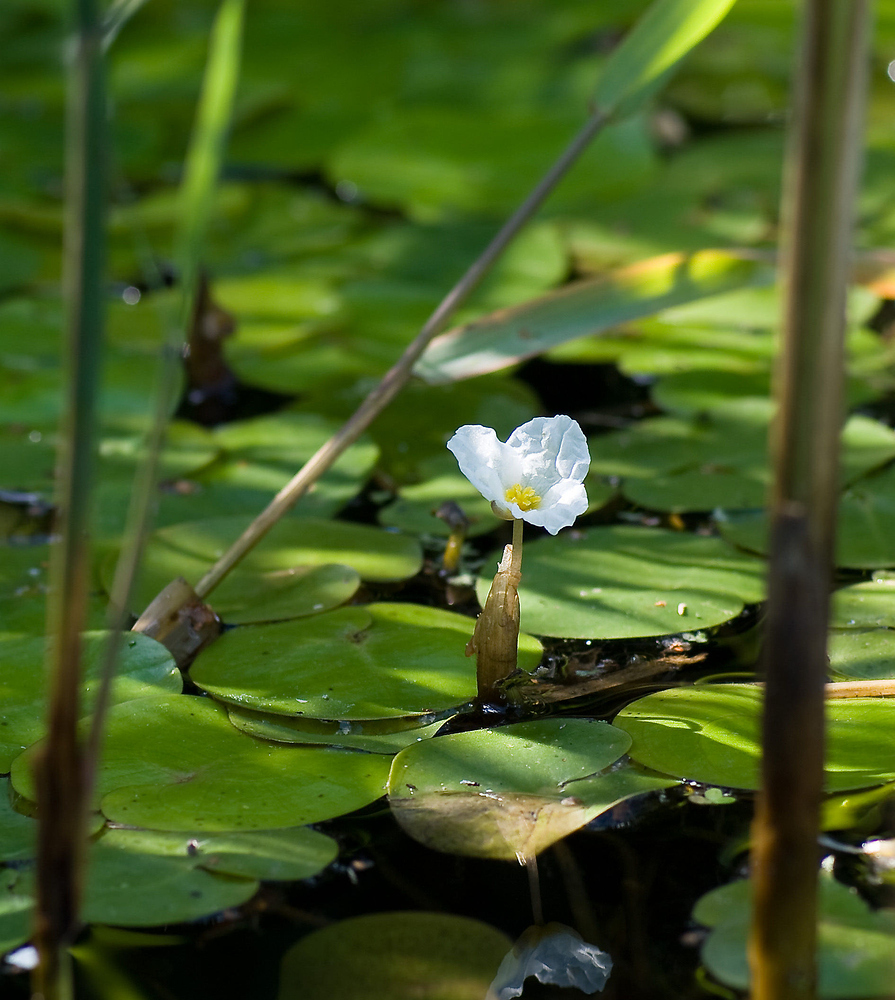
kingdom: Plantae
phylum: Tracheophyta
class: Liliopsida
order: Alismatales
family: Hydrocharitaceae
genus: Hydrocharis
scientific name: Hydrocharis morsus-ranae
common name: Frogbit
